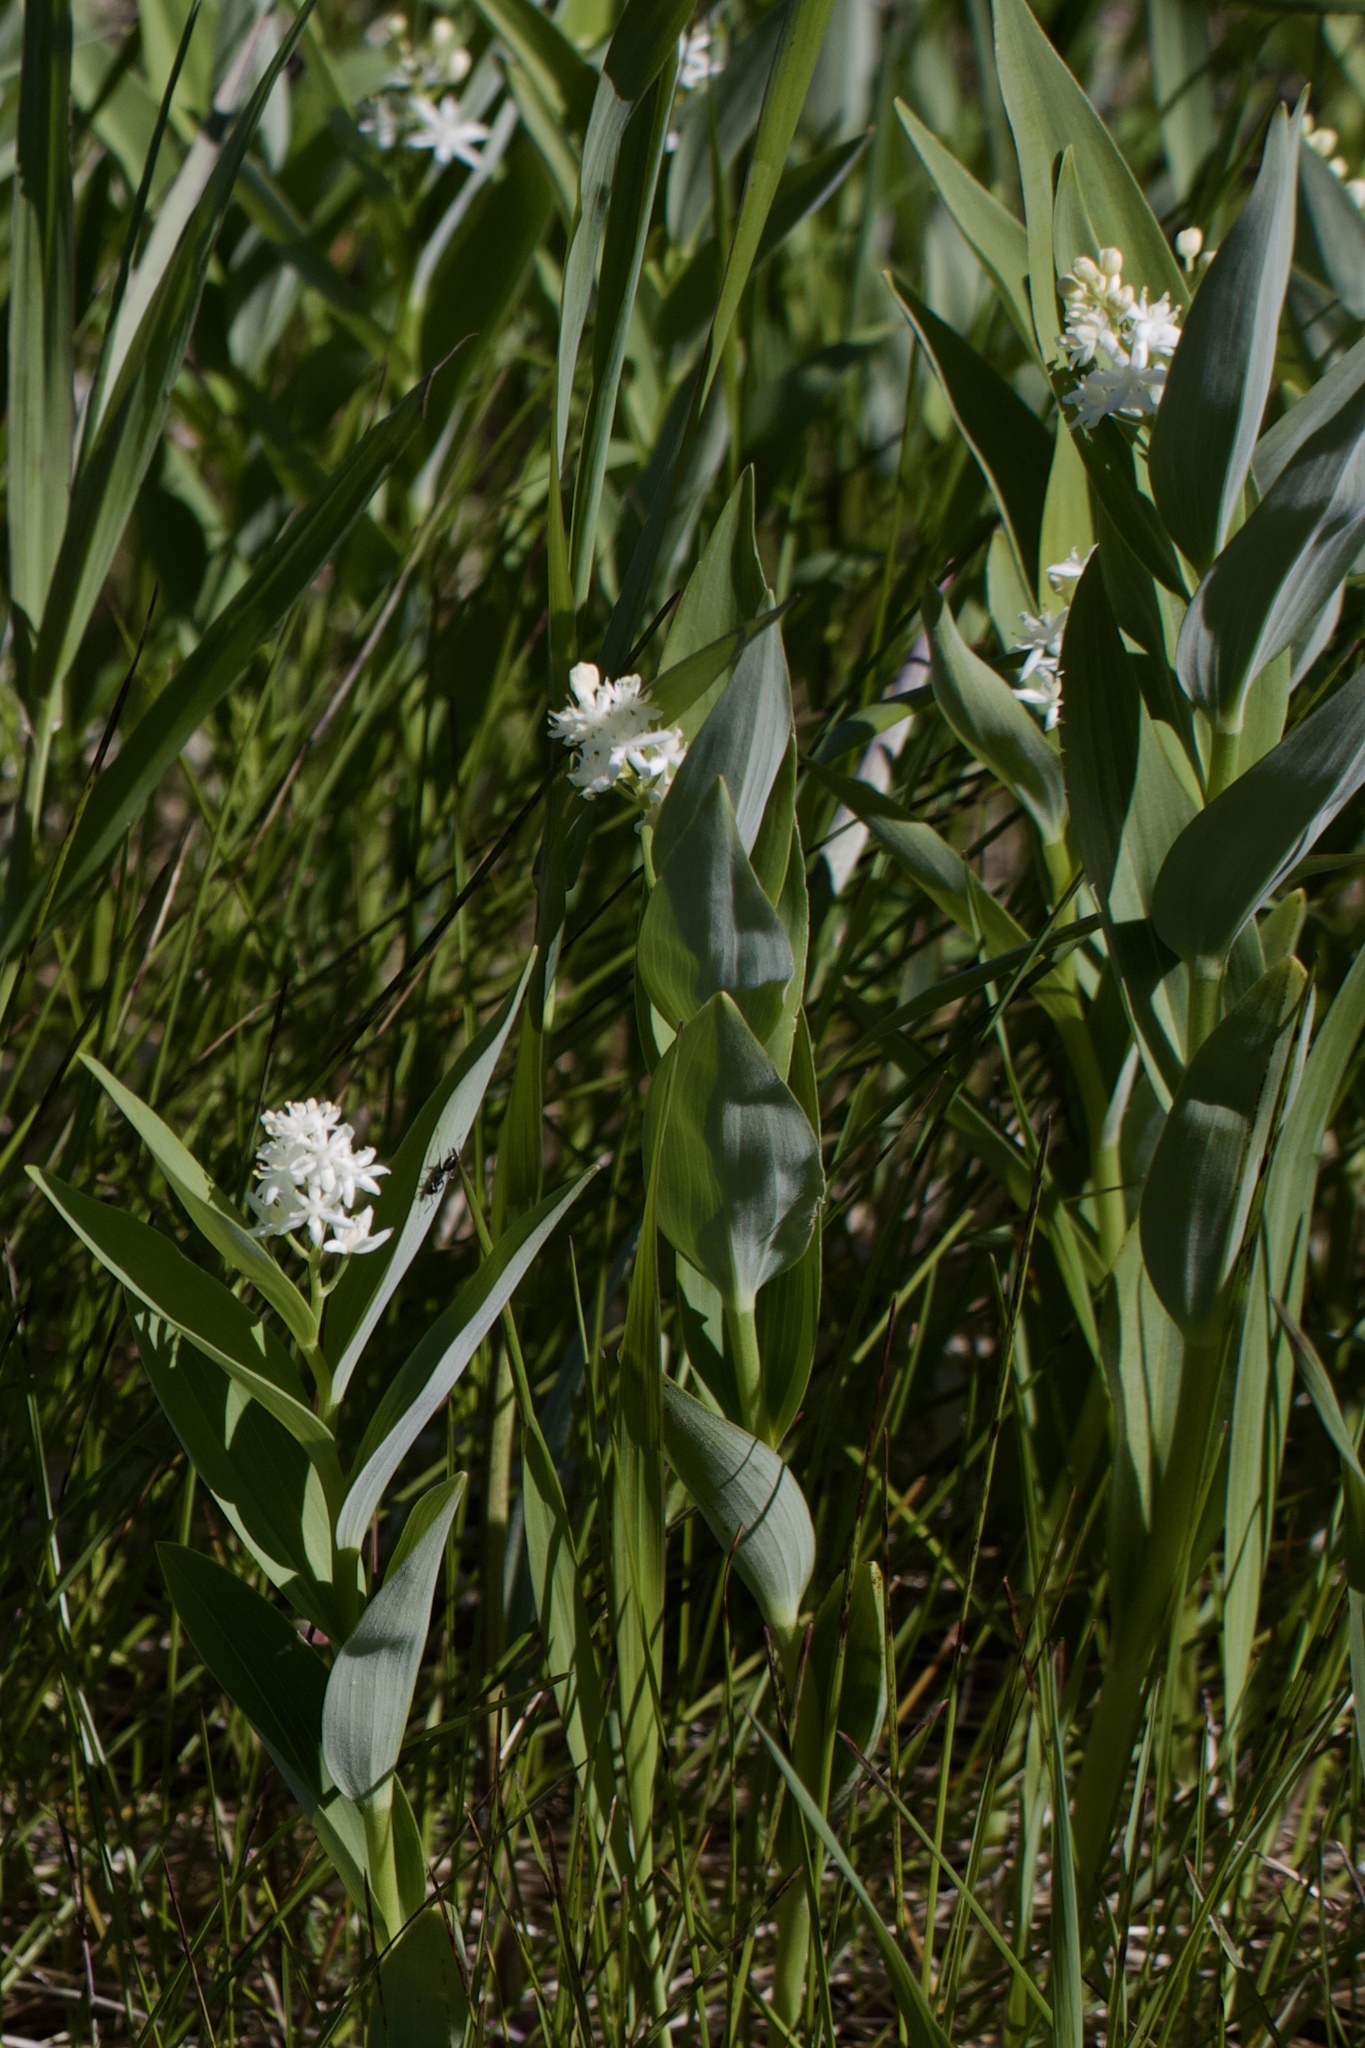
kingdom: Plantae
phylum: Tracheophyta
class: Liliopsida
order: Asparagales
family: Asparagaceae
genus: Maianthemum
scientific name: Maianthemum stellatum
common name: Little false solomon's seal
